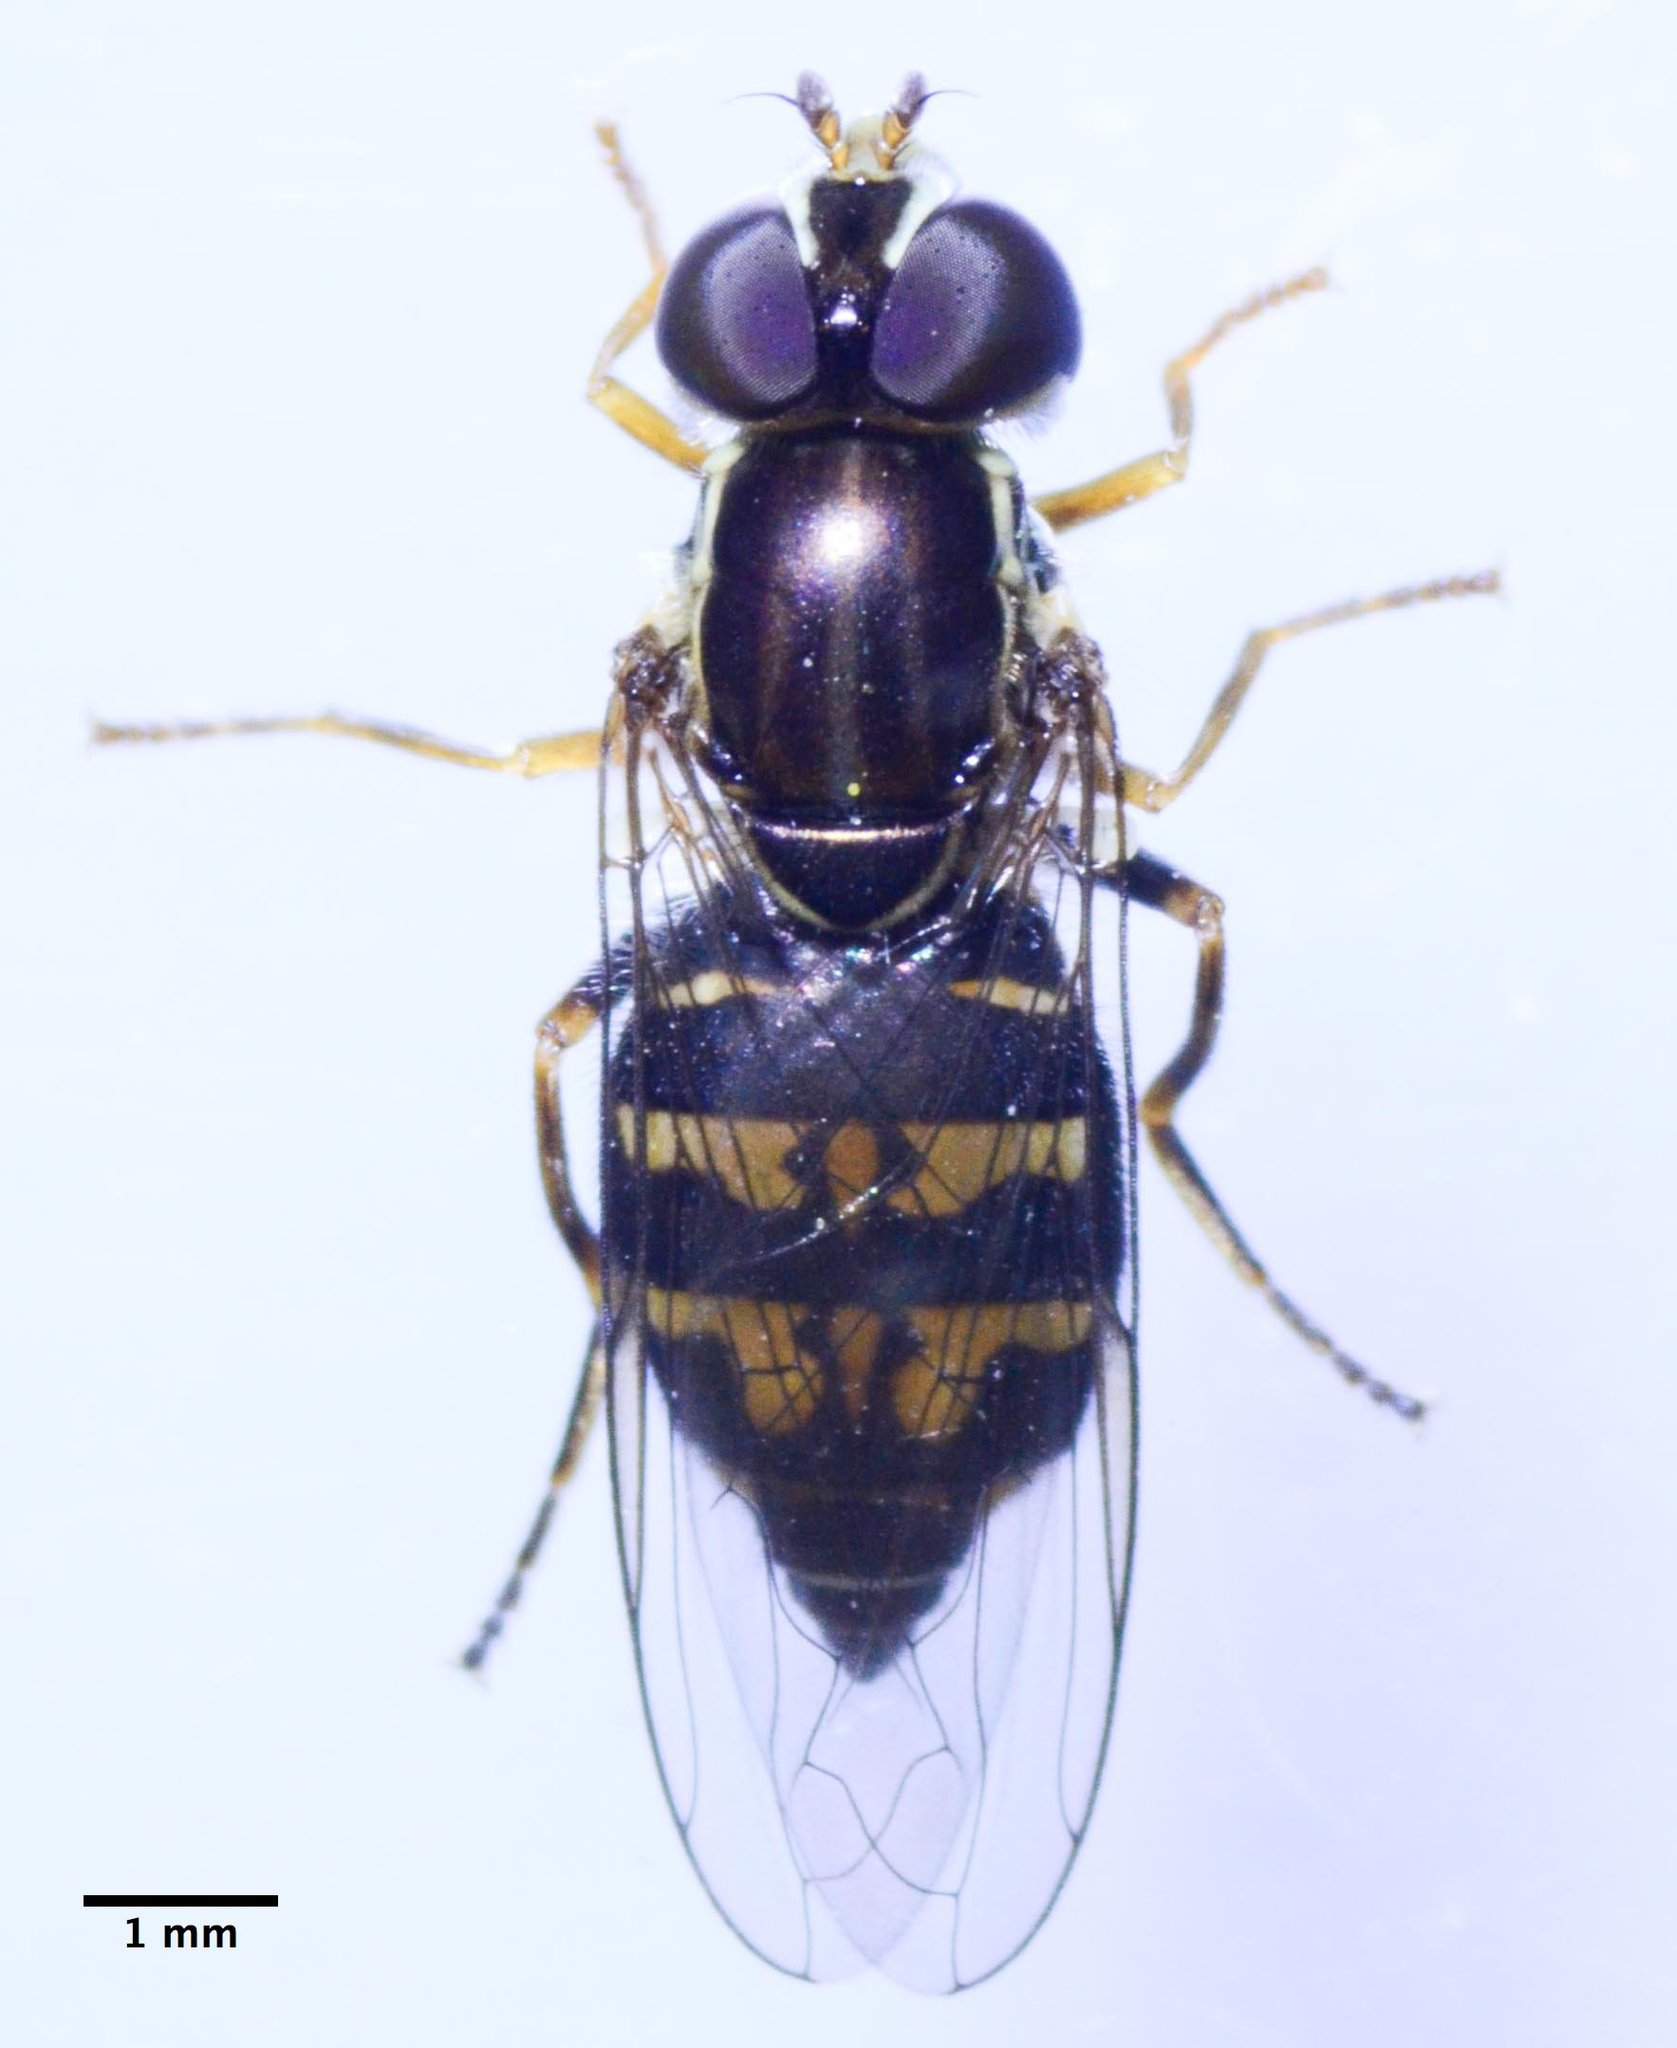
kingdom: Animalia
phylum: Arthropoda
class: Insecta
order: Diptera
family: Syrphidae
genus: Toxomerus
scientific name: Toxomerus occidentalis
